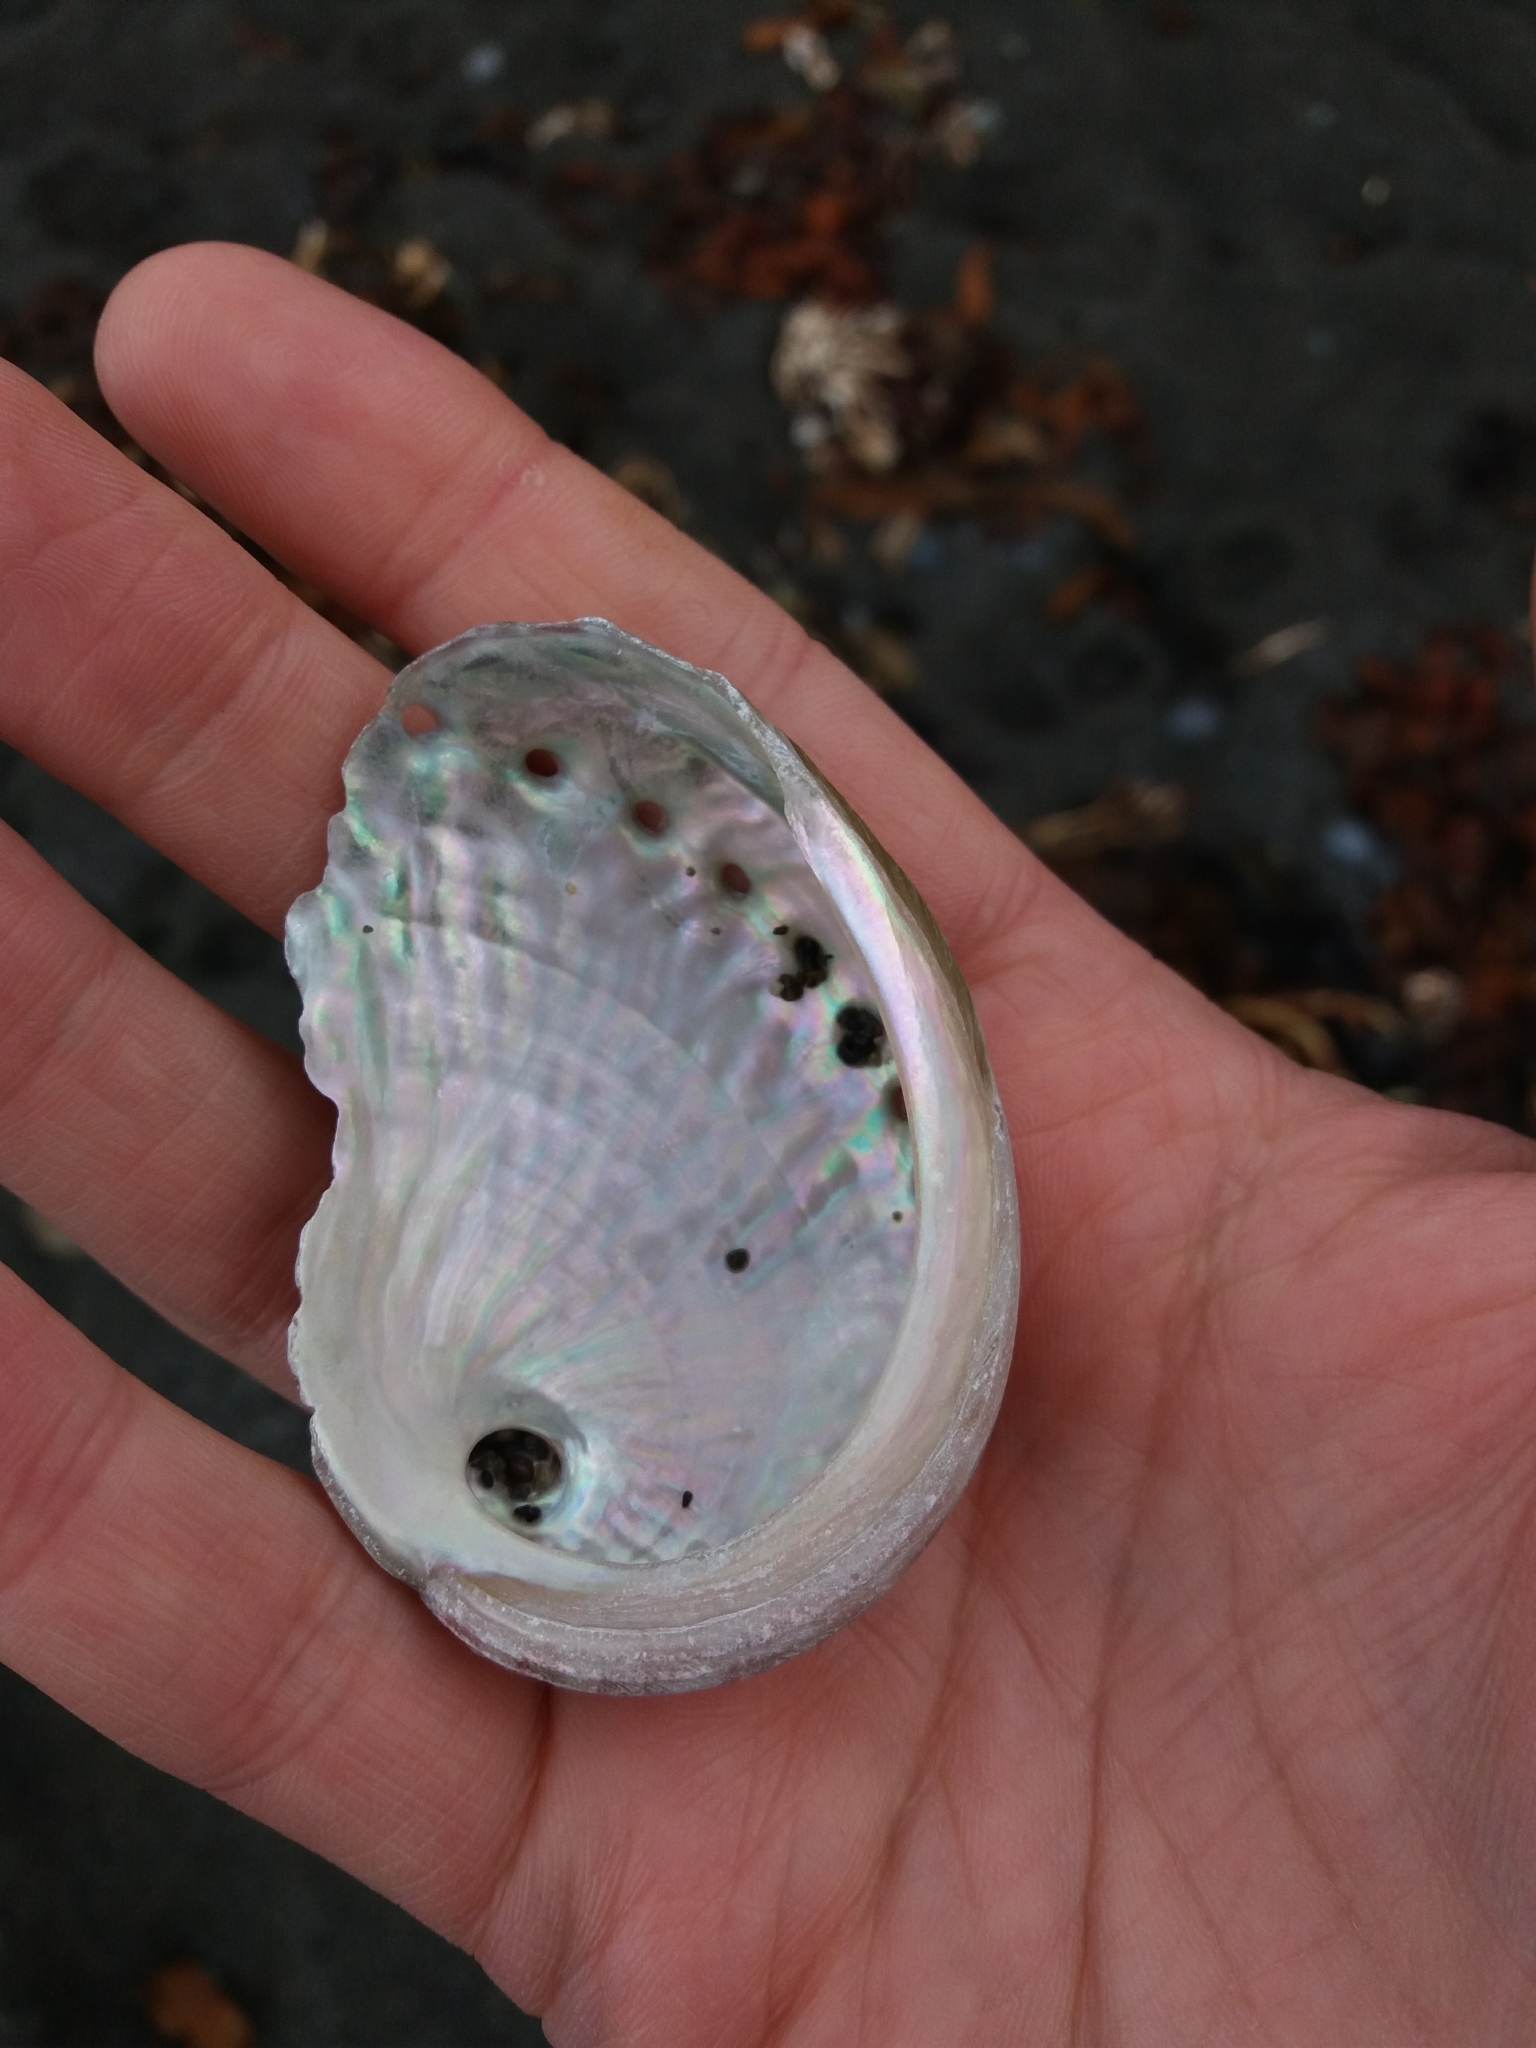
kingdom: Animalia
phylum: Mollusca
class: Gastropoda
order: Lepetellida
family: Haliotidae
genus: Haliotis
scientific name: Haliotis australis
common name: Silver abalone
